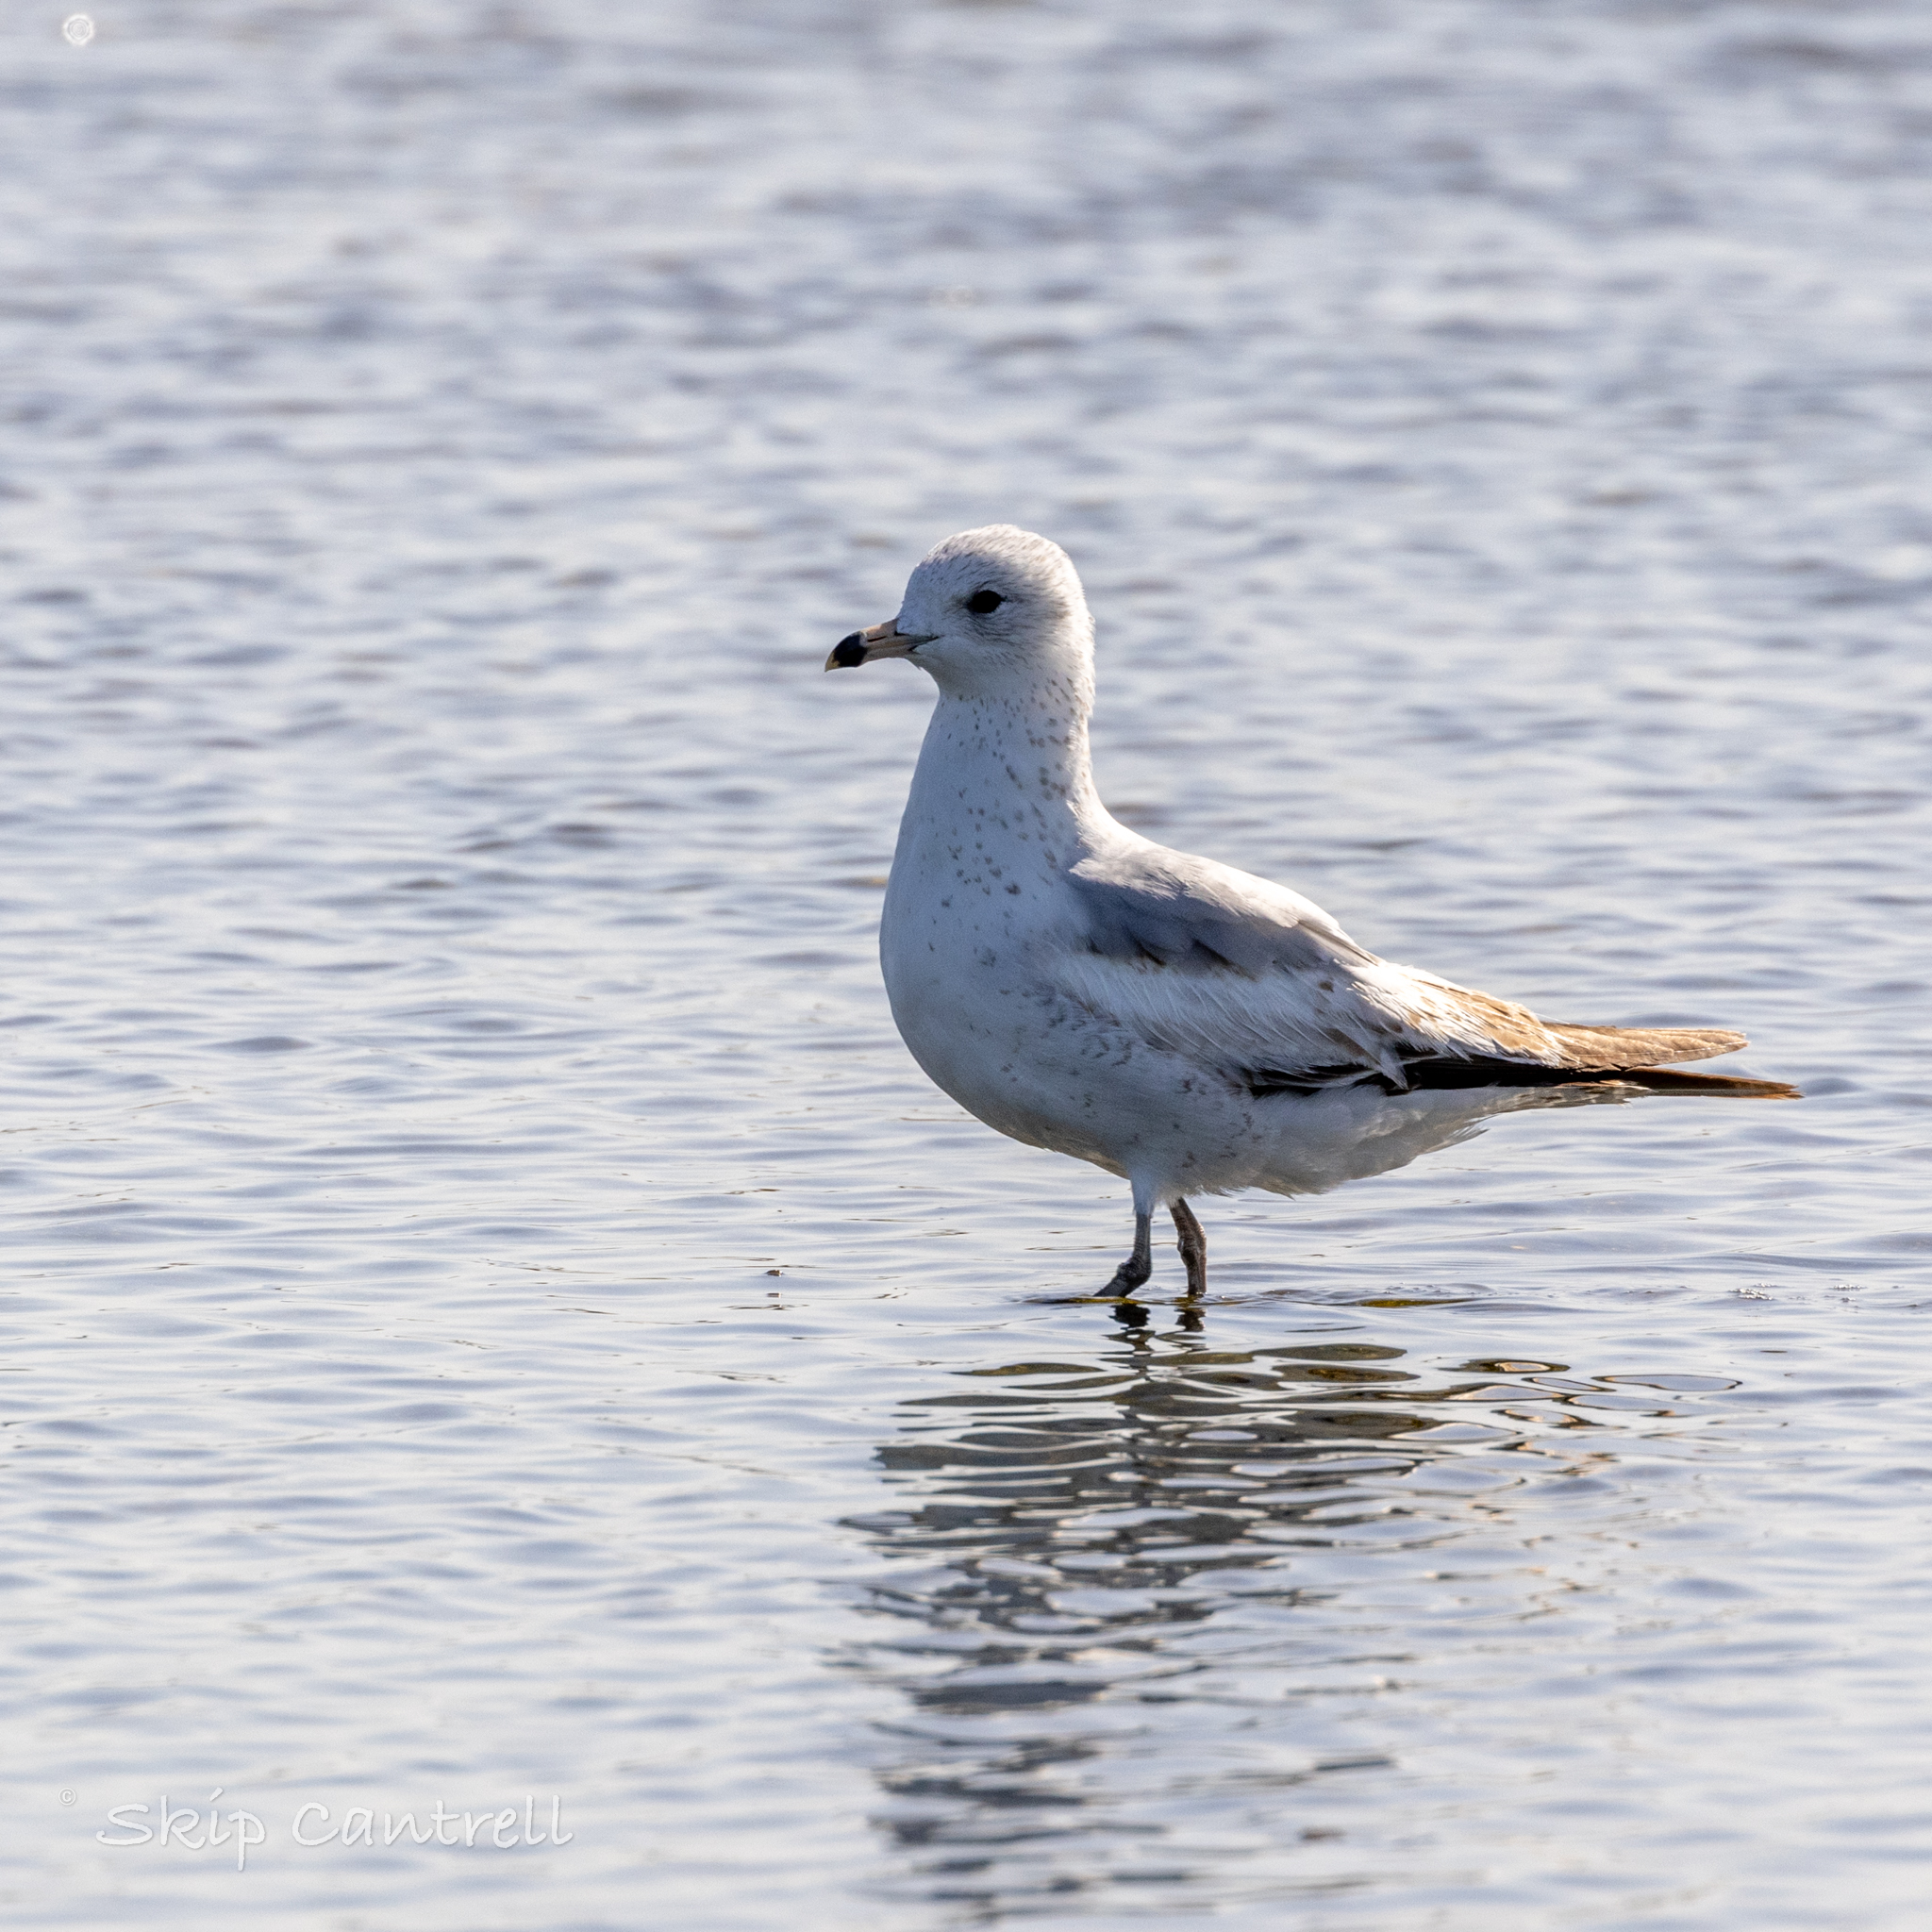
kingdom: Animalia
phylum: Chordata
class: Aves
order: Charadriiformes
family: Laridae
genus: Larus
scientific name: Larus delawarensis
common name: Ring-billed gull
